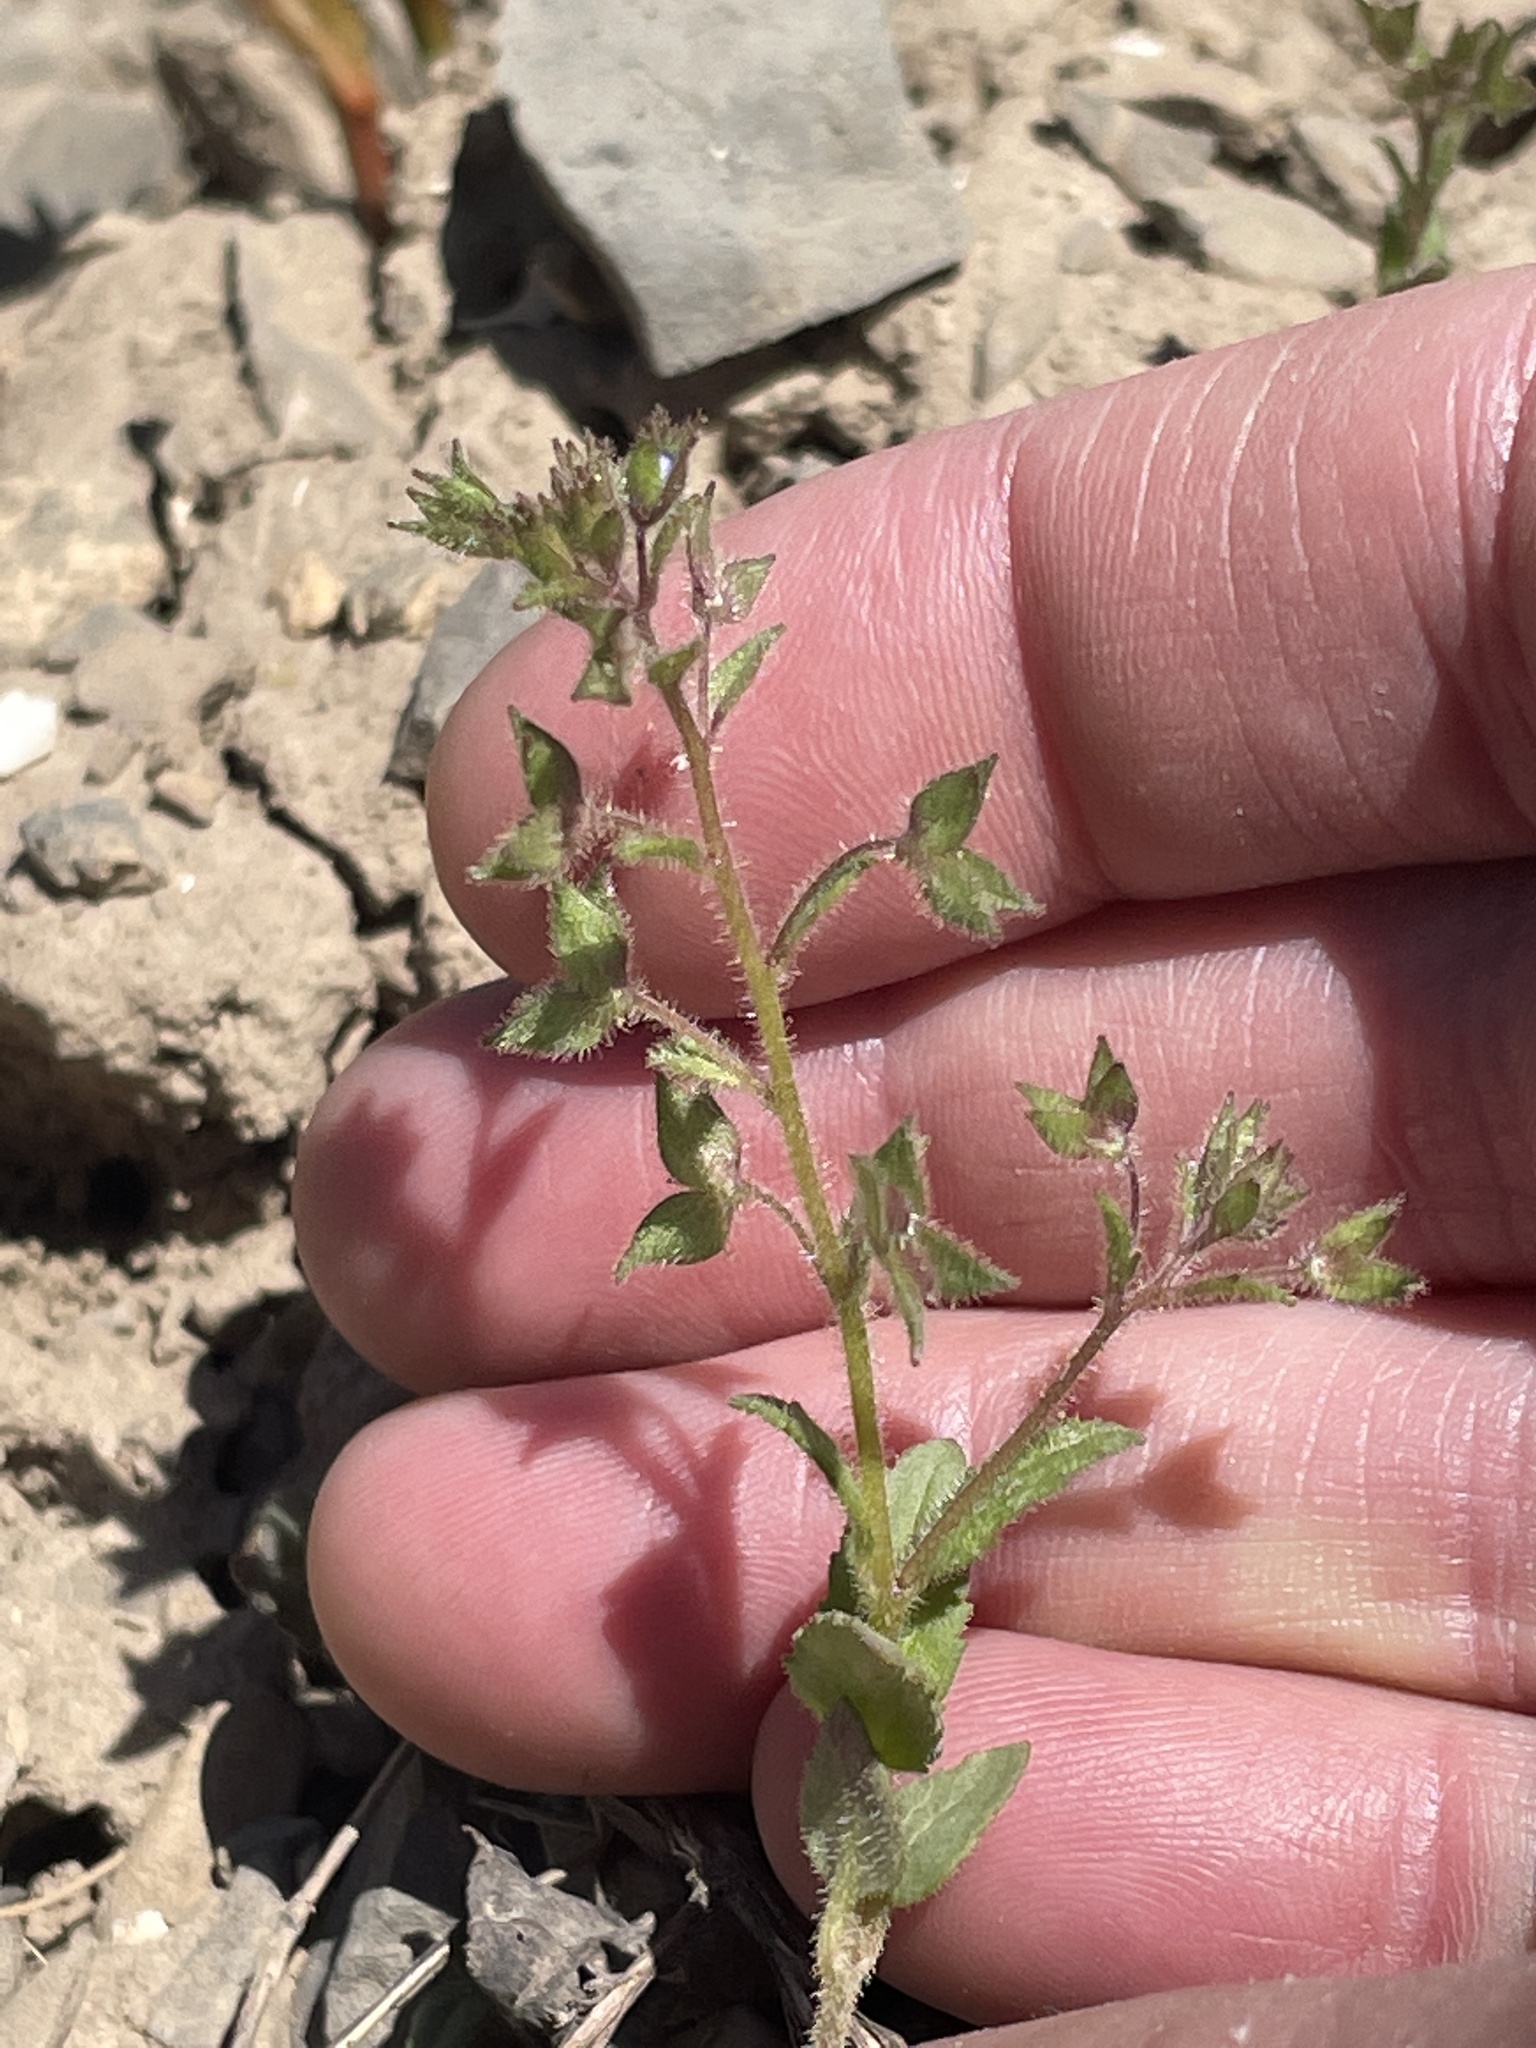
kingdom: Plantae
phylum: Tracheophyta
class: Magnoliopsida
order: Lamiales
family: Plantaginaceae
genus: Veronica
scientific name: Veronica biloba
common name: Twolobe speedwell
